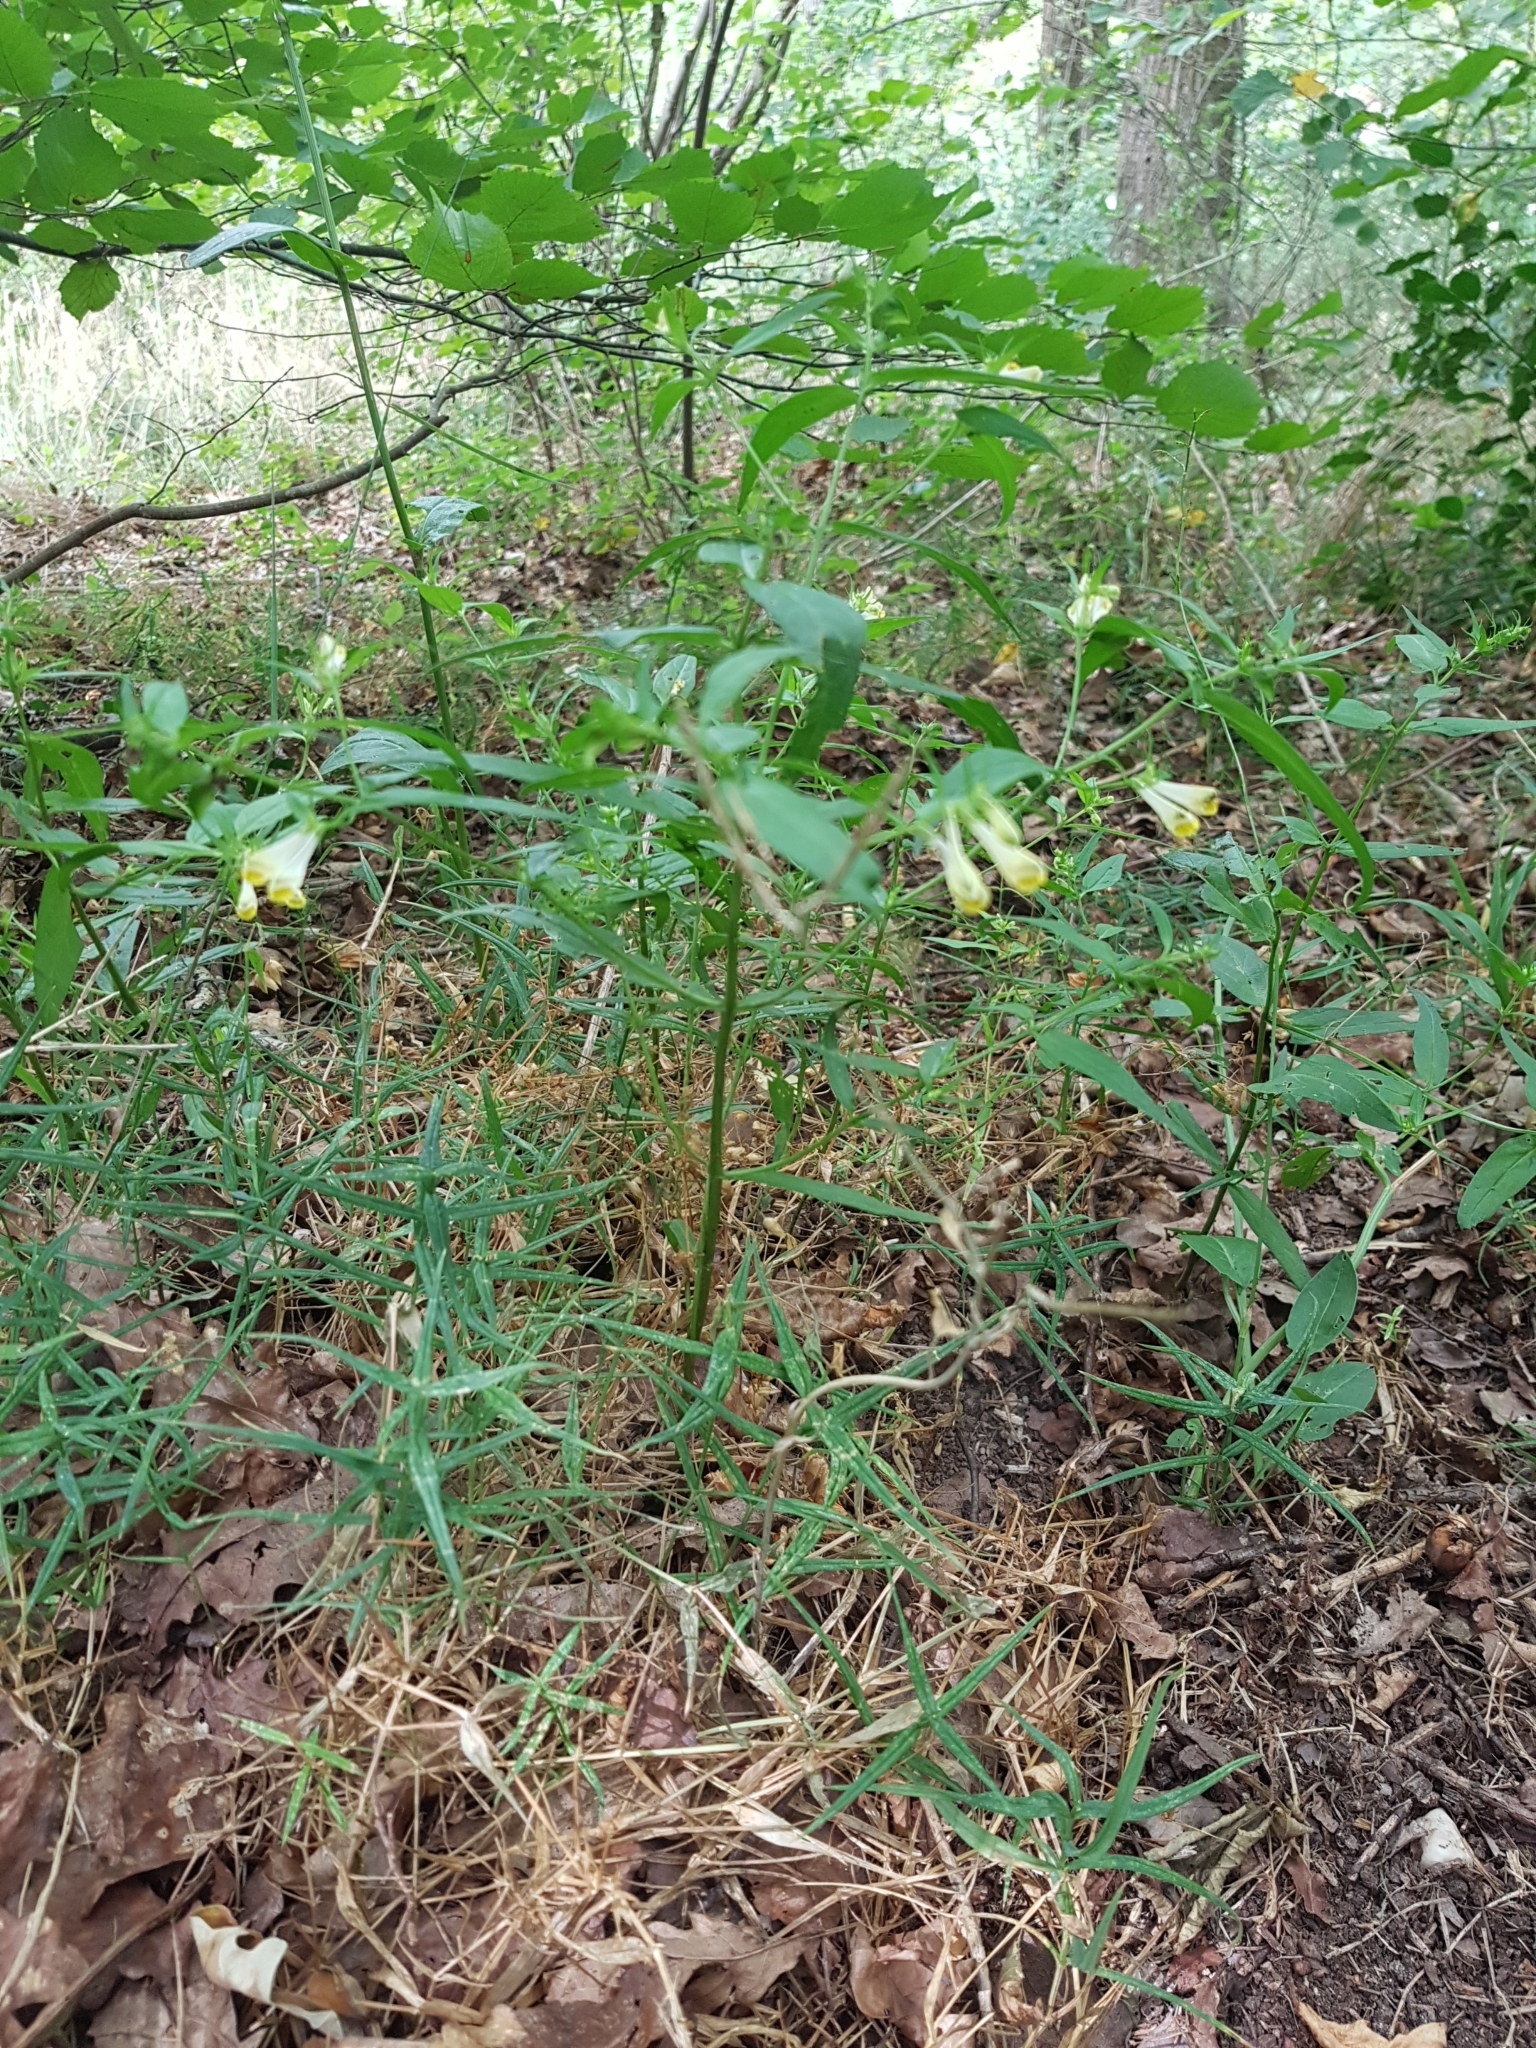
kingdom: Plantae
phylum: Tracheophyta
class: Magnoliopsida
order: Lamiales
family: Orobanchaceae
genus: Melampyrum
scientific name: Melampyrum pratense
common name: Common cow-wheat
